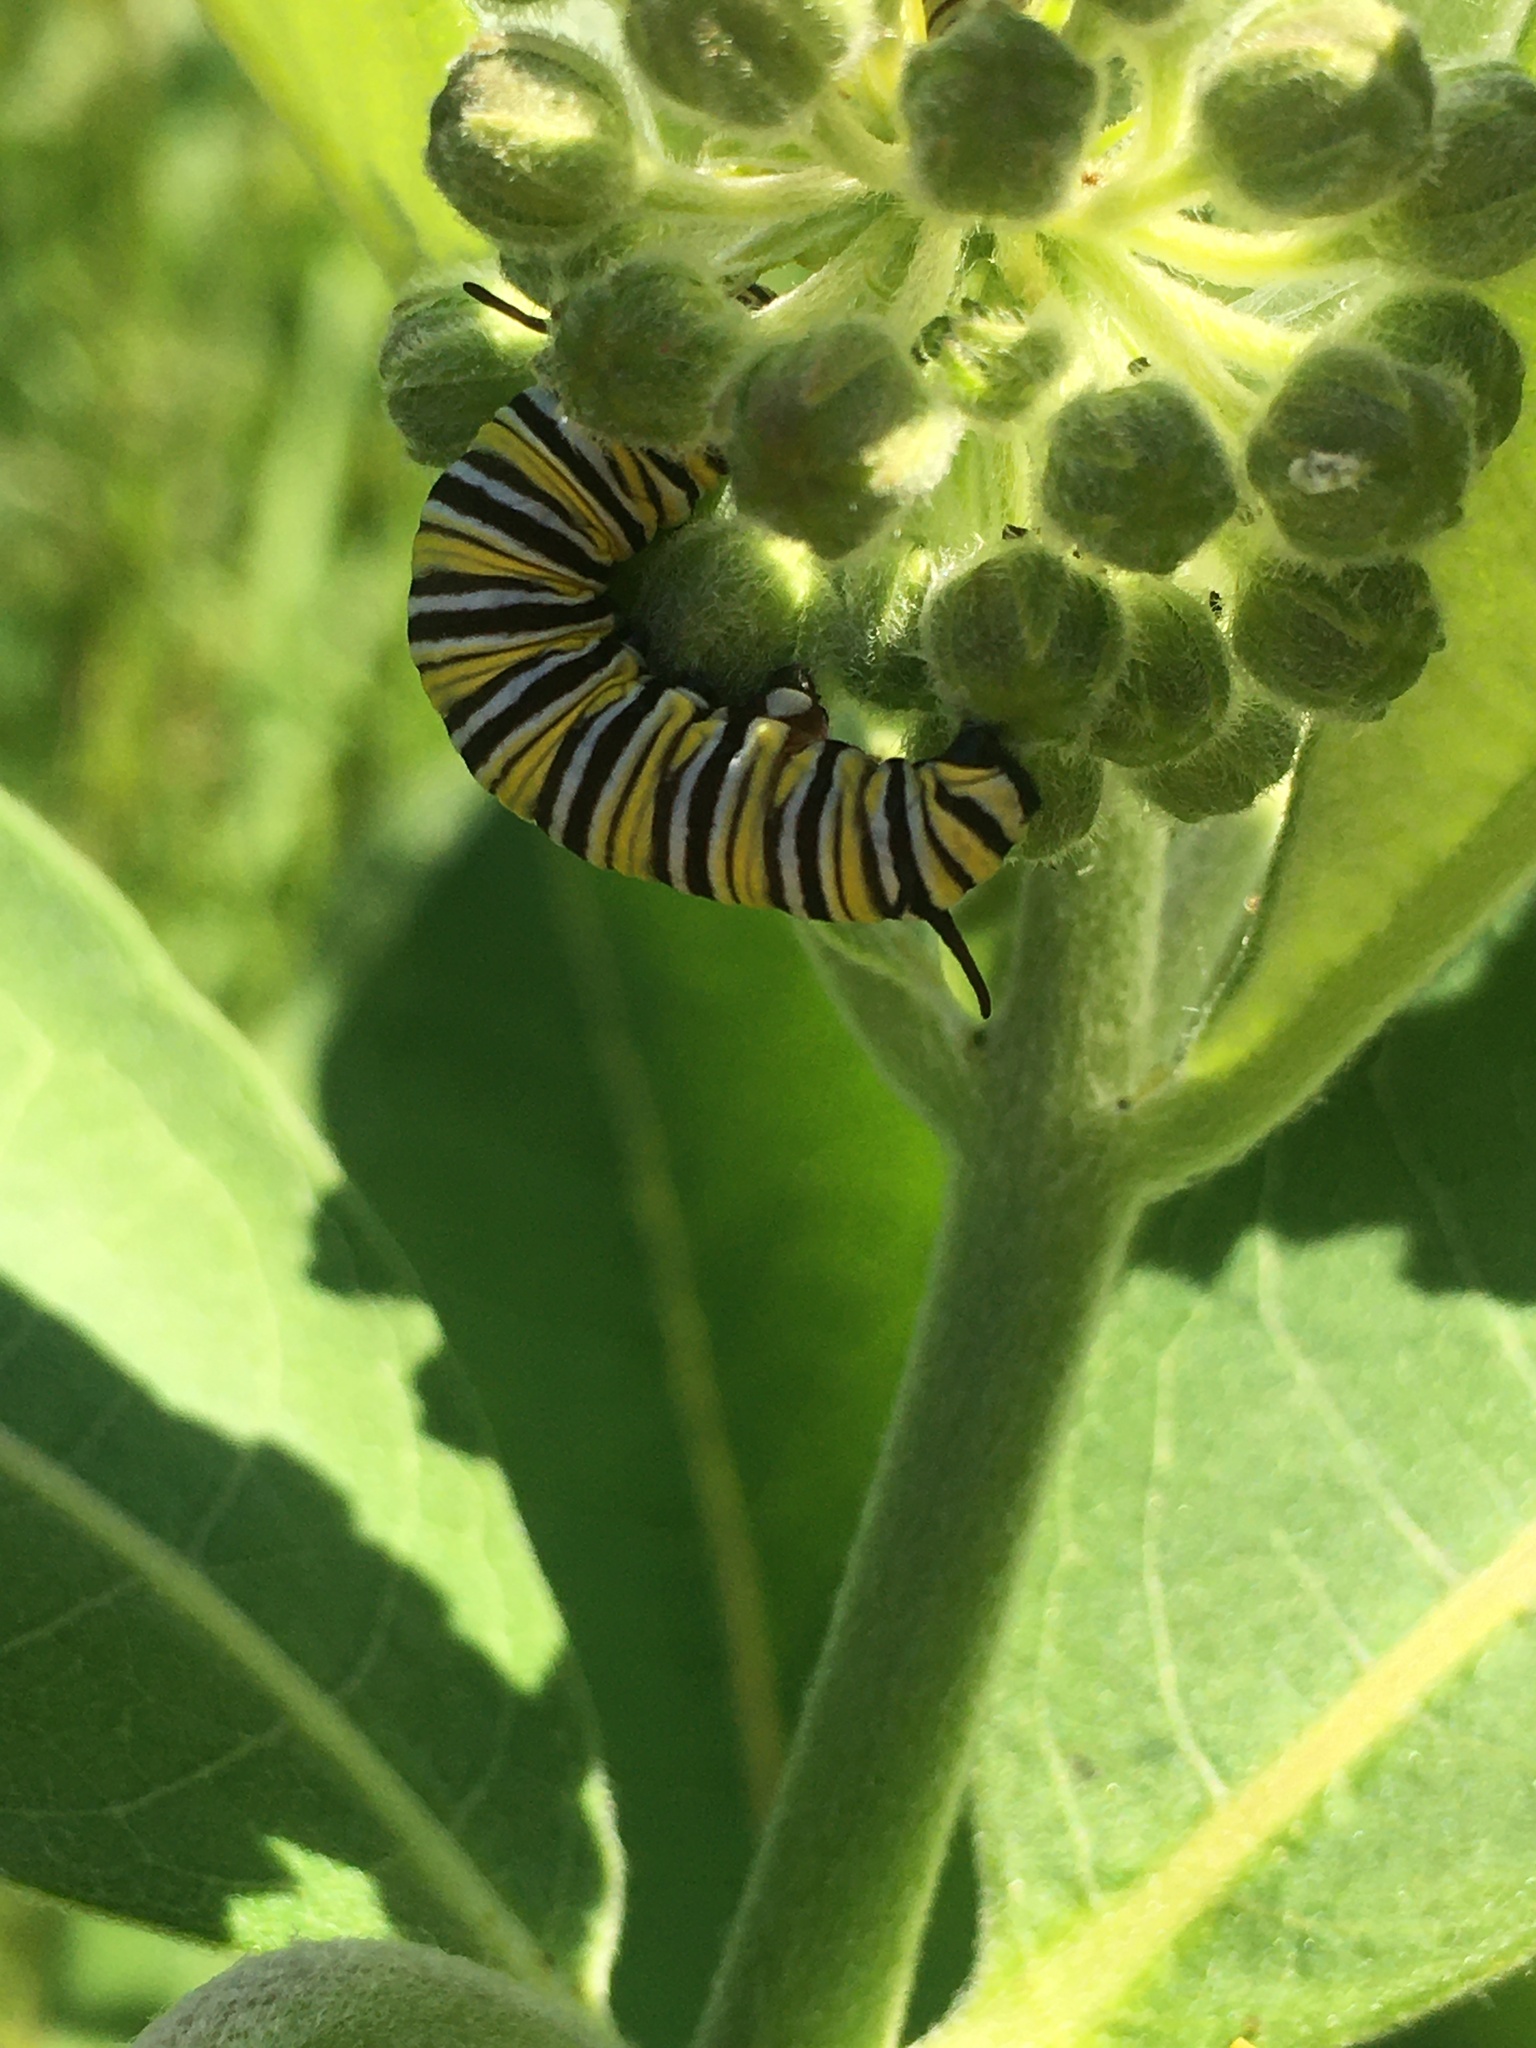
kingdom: Animalia
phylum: Arthropoda
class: Insecta
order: Lepidoptera
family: Nymphalidae
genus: Danaus
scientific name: Danaus plexippus
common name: Monarch
